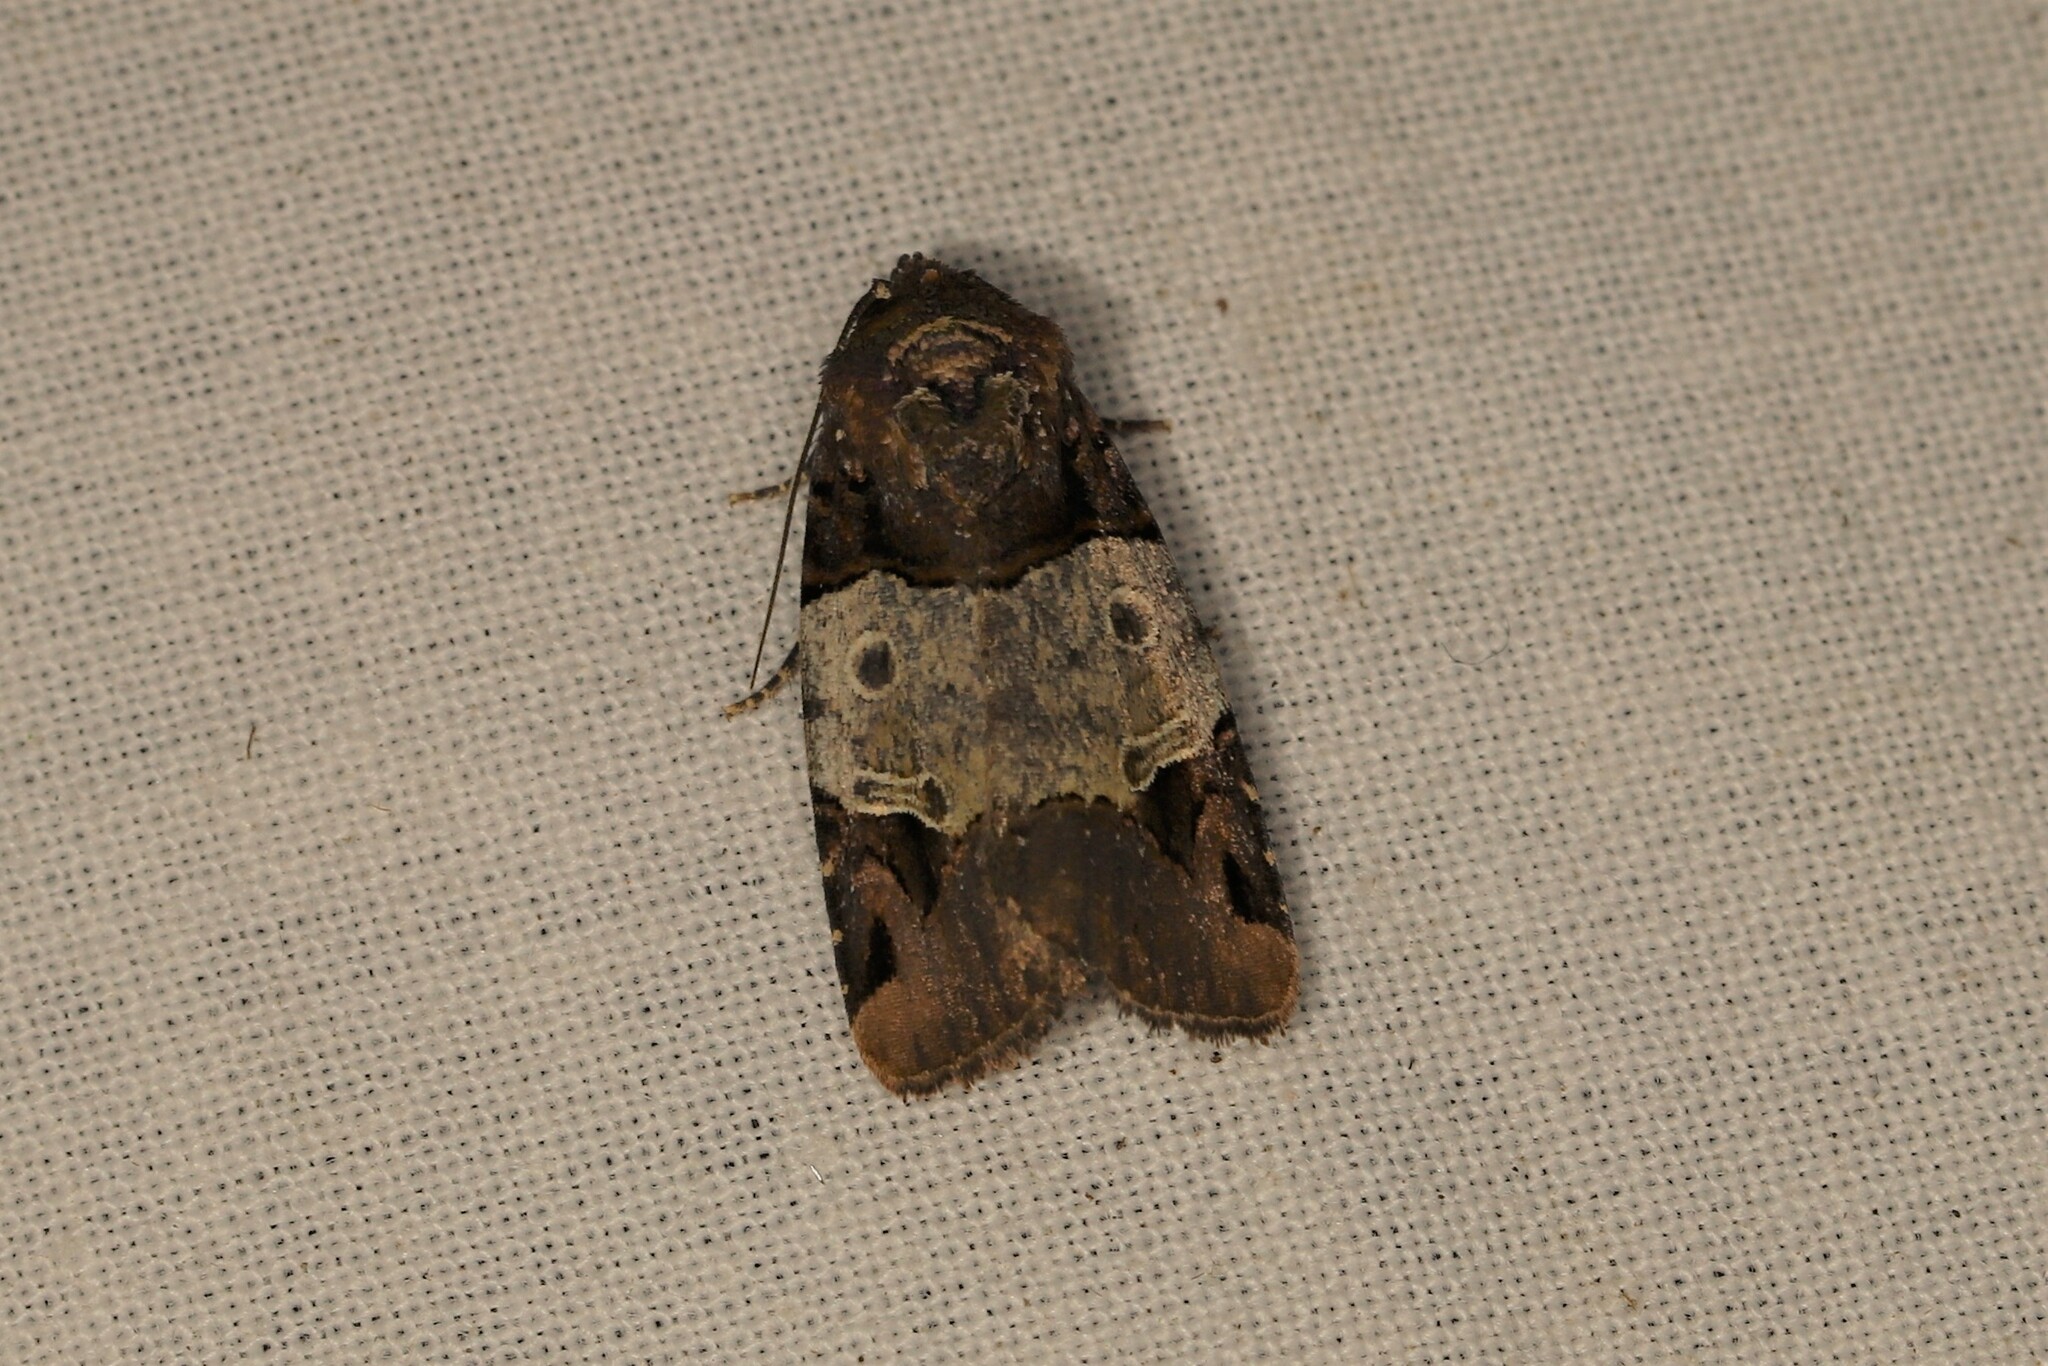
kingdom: Animalia
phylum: Arthropoda
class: Insecta
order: Lepidoptera
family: Noctuidae
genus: Hampsonodes
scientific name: Hampsonodes latifascia
